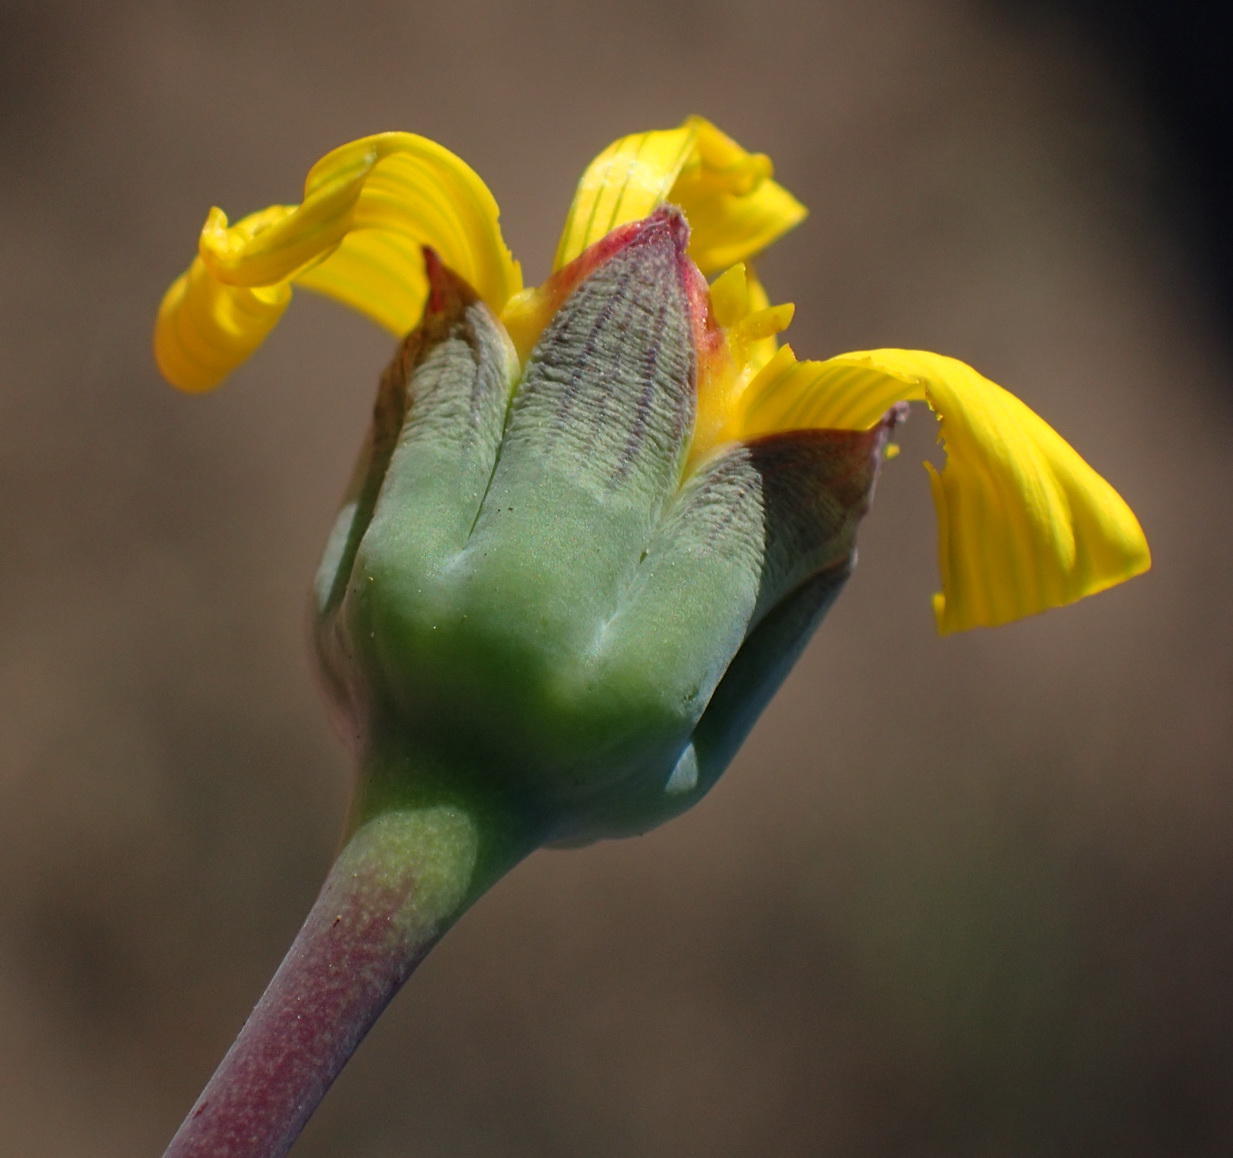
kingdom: Plantae
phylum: Tracheophyta
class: Magnoliopsida
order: Asterales
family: Asteraceae
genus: Othonna
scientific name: Othonna auriculifolia
